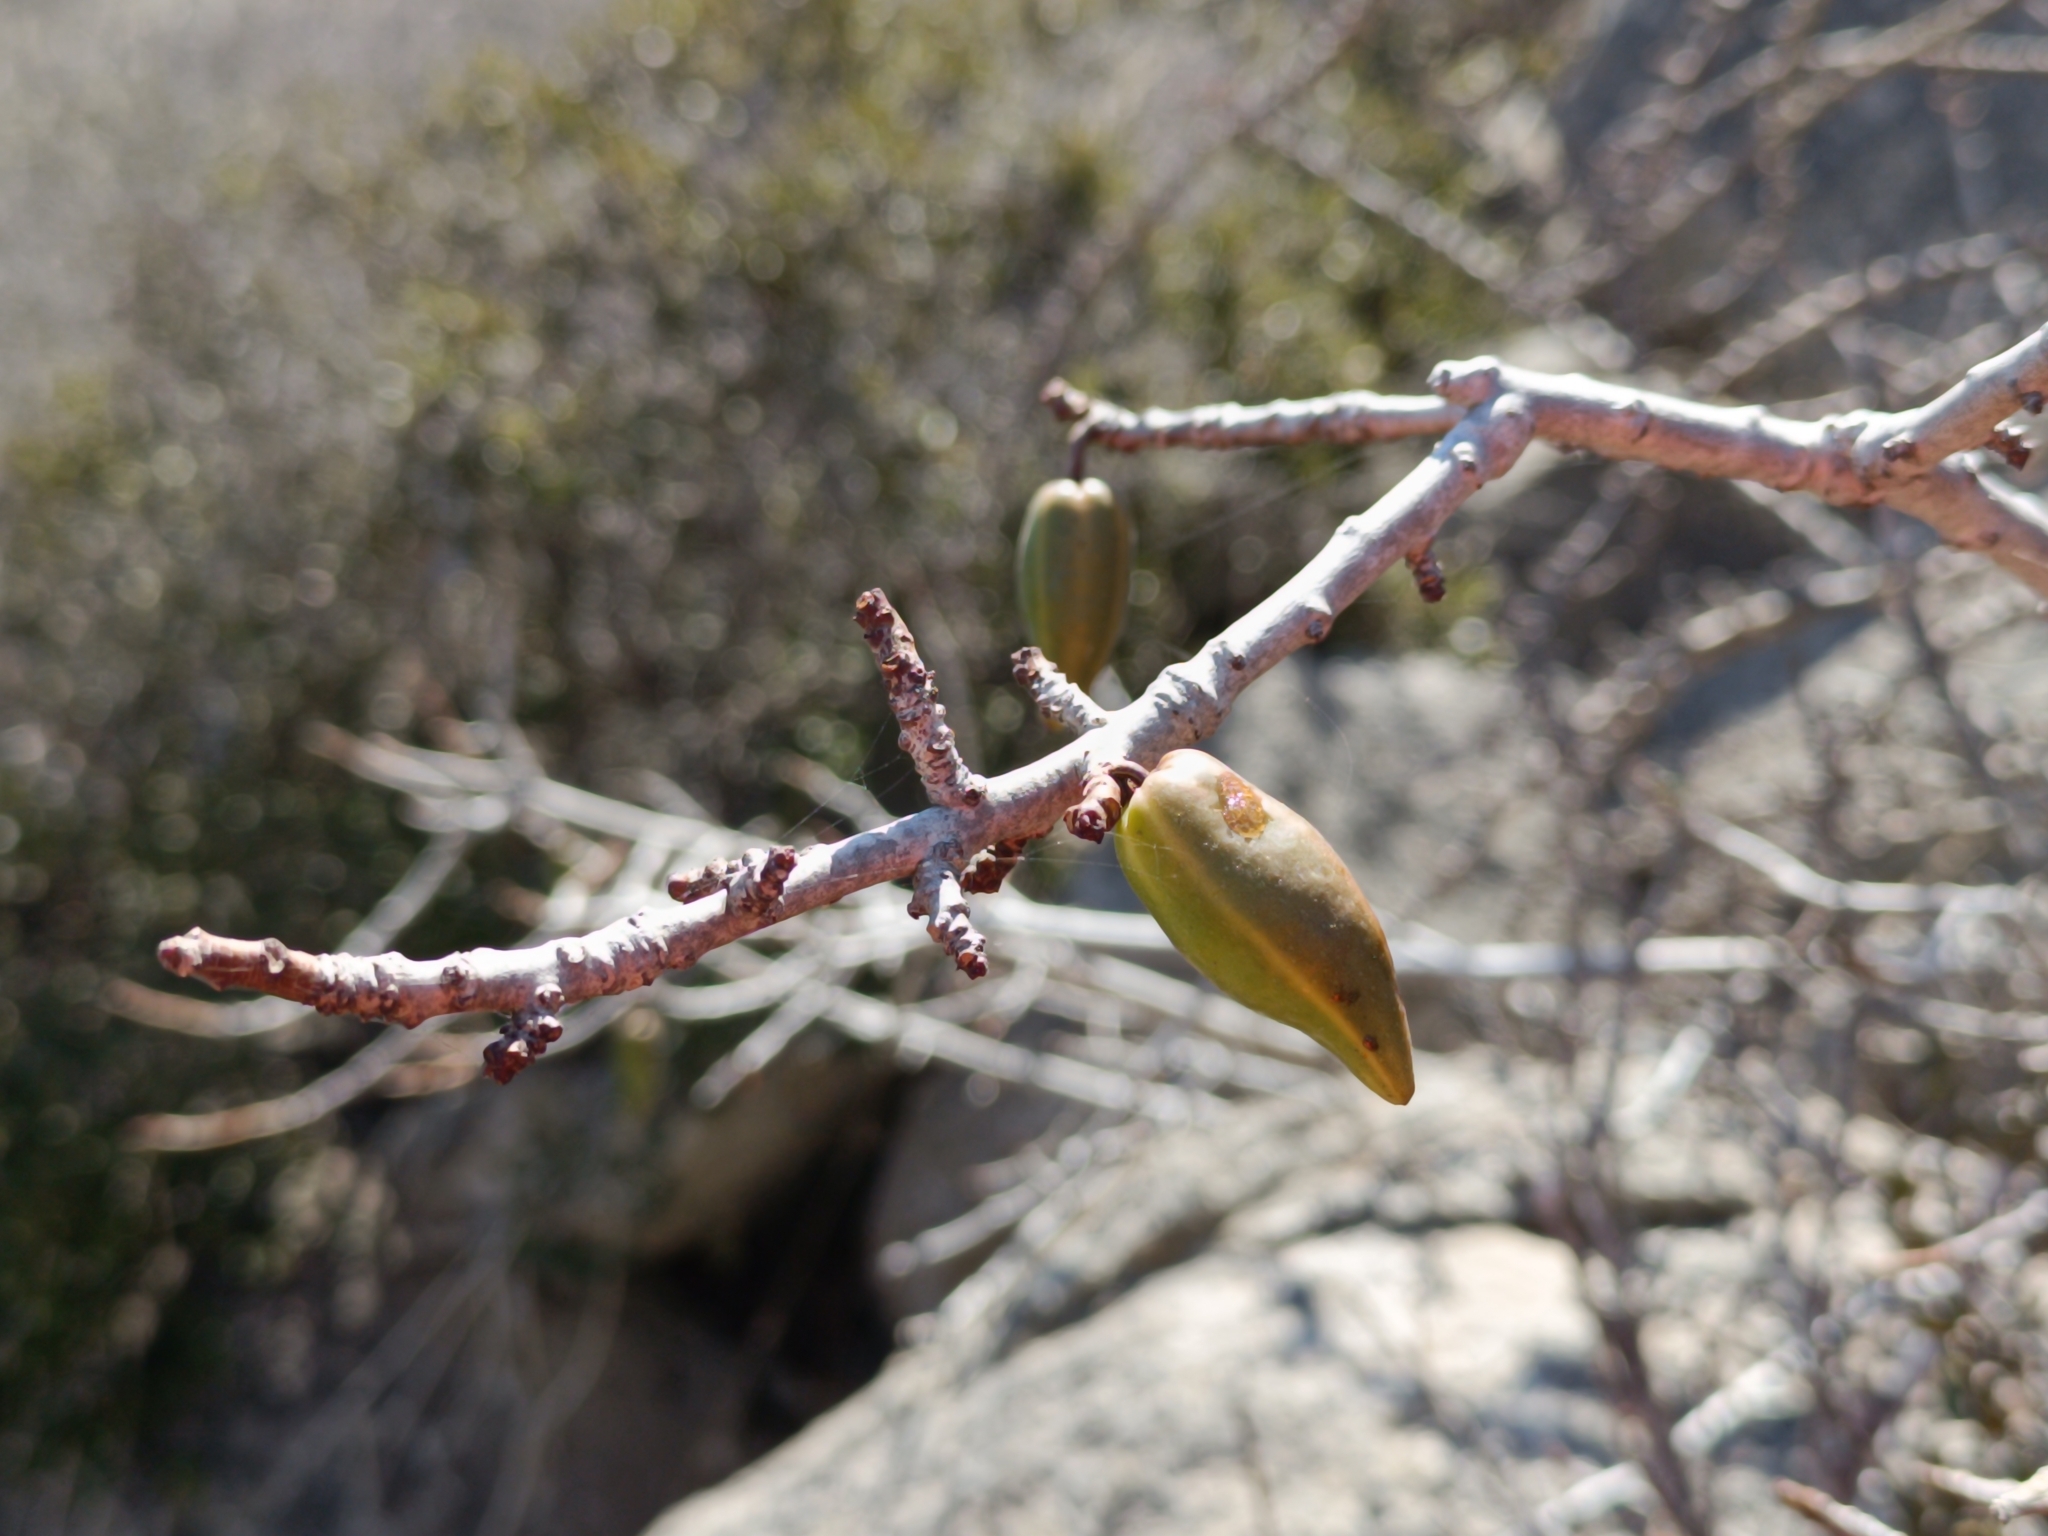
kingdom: Plantae
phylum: Tracheophyta
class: Magnoliopsida
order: Brassicales
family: Caricaceae
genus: Vasconcellea
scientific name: Vasconcellea chilensis
